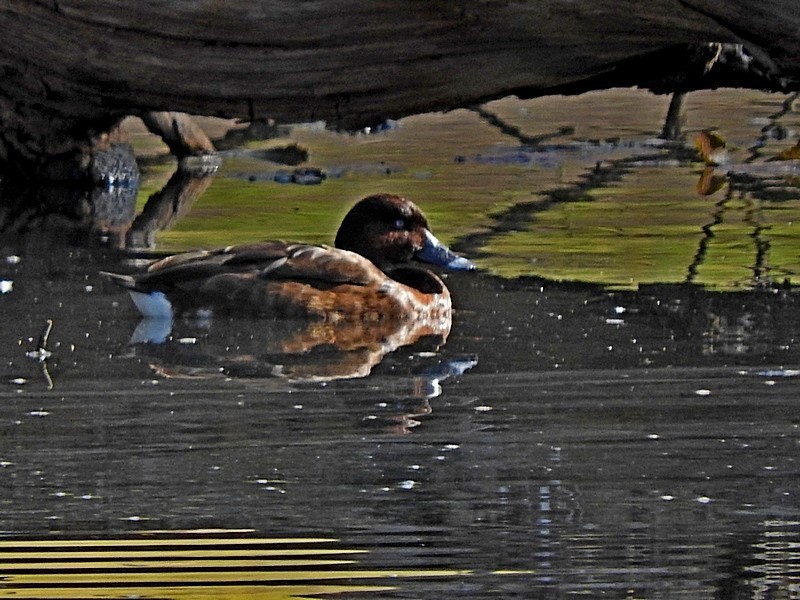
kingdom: Animalia
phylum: Chordata
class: Aves
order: Anseriformes
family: Anatidae
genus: Aythya
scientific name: Aythya australis
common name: Hardhead
